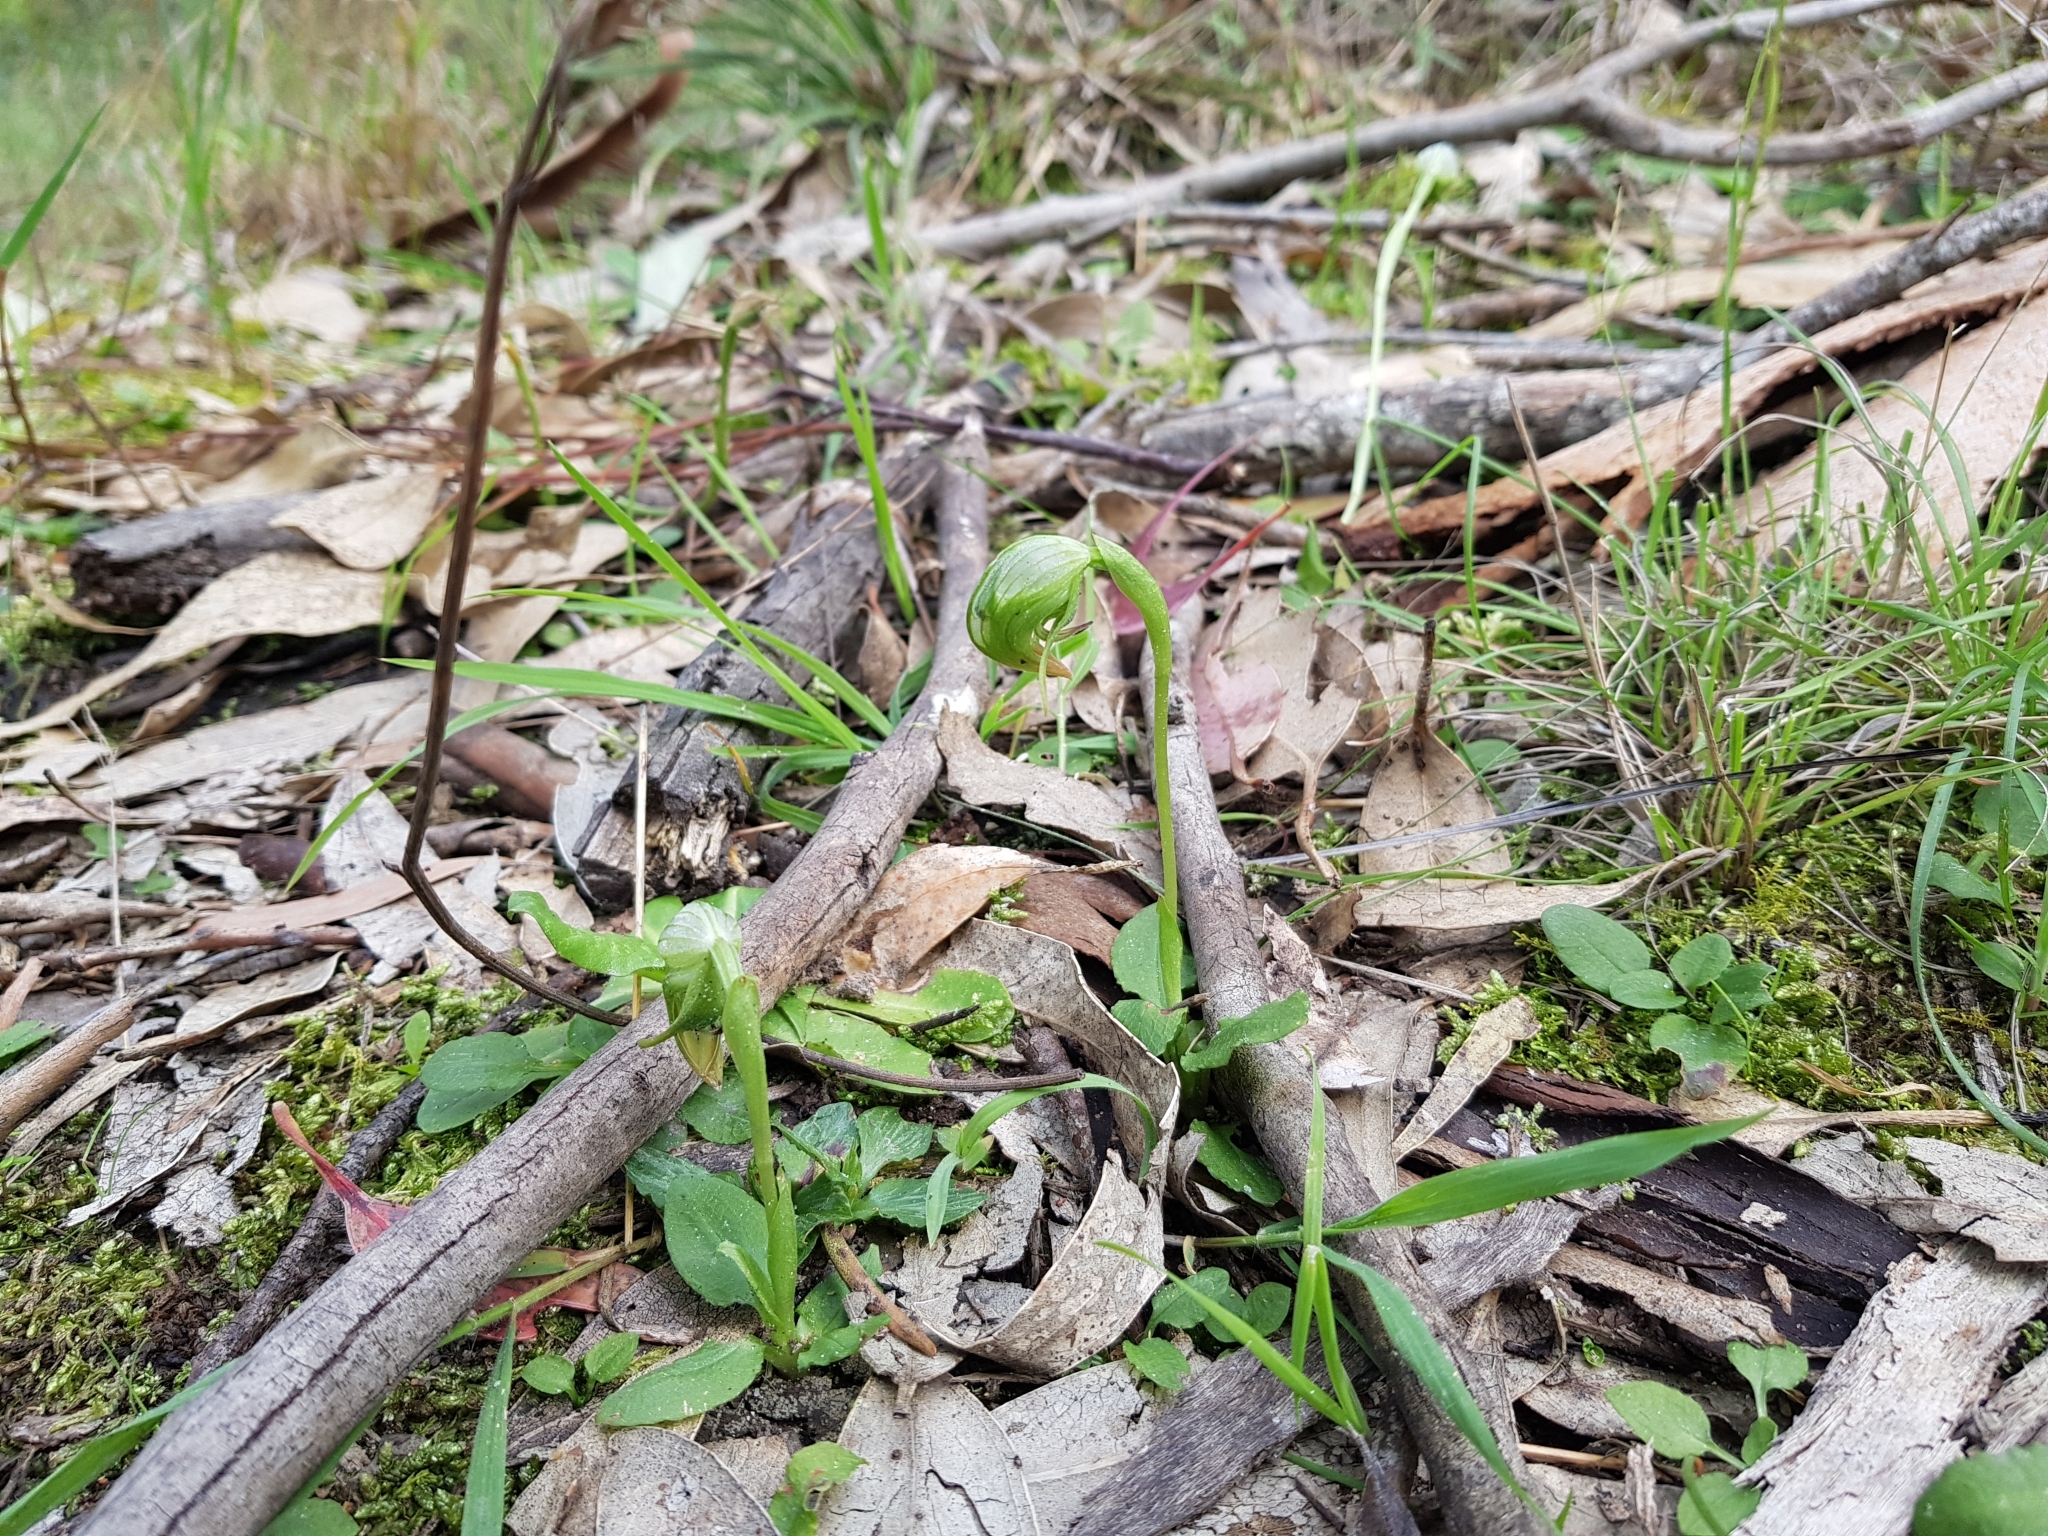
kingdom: Plantae
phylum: Tracheophyta
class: Liliopsida
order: Asparagales
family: Orchidaceae
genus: Pterostylis
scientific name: Pterostylis nutans
